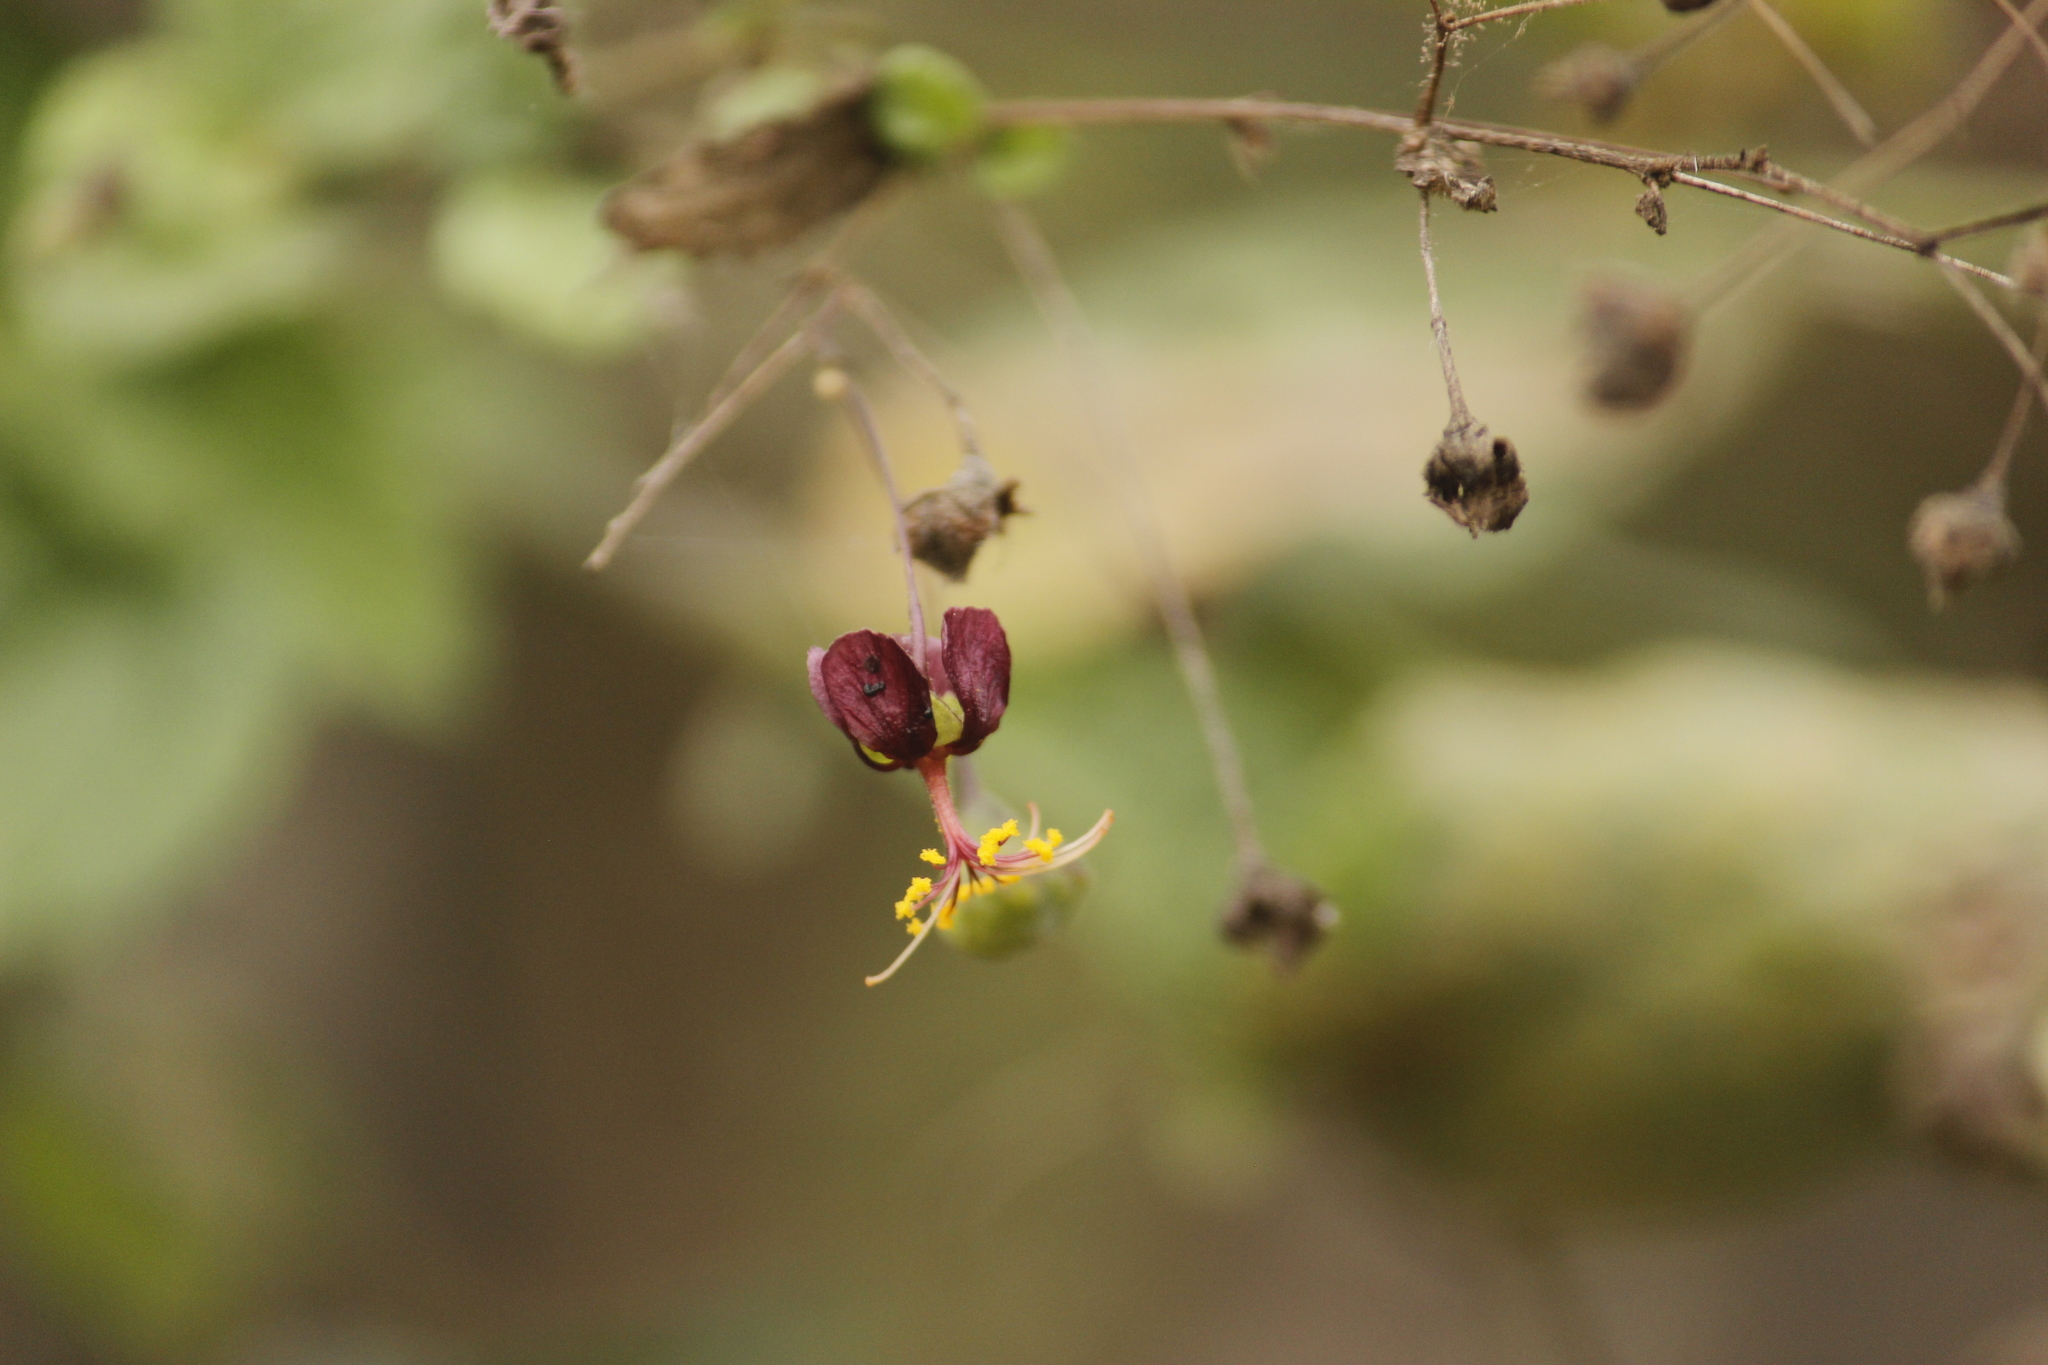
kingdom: Plantae
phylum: Tracheophyta
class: Magnoliopsida
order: Malvales
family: Malvaceae
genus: Sidastrum
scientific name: Sidastrum paniculatum
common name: Panicled sandmallow
